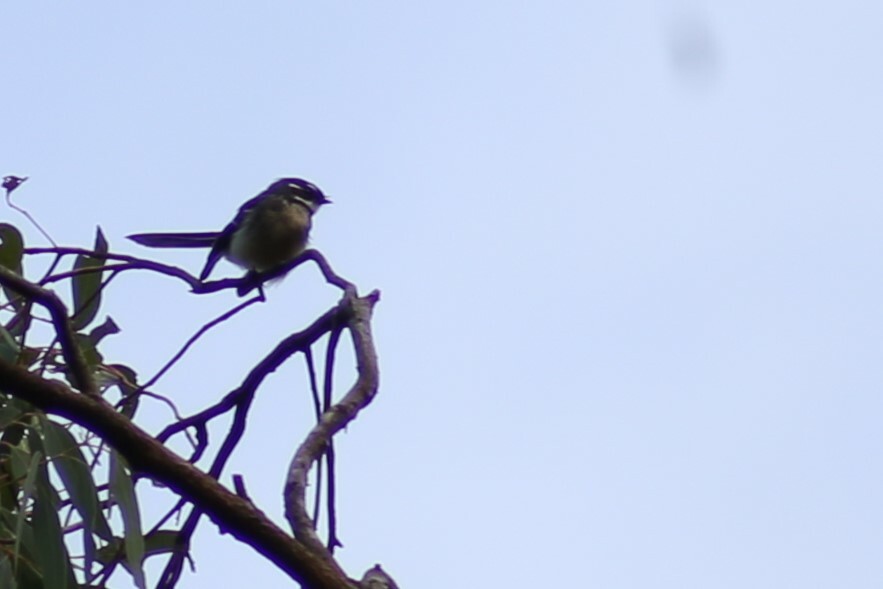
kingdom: Animalia
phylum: Chordata
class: Aves
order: Passeriformes
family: Rhipiduridae
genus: Rhipidura
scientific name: Rhipidura albiscapa
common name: Grey fantail
